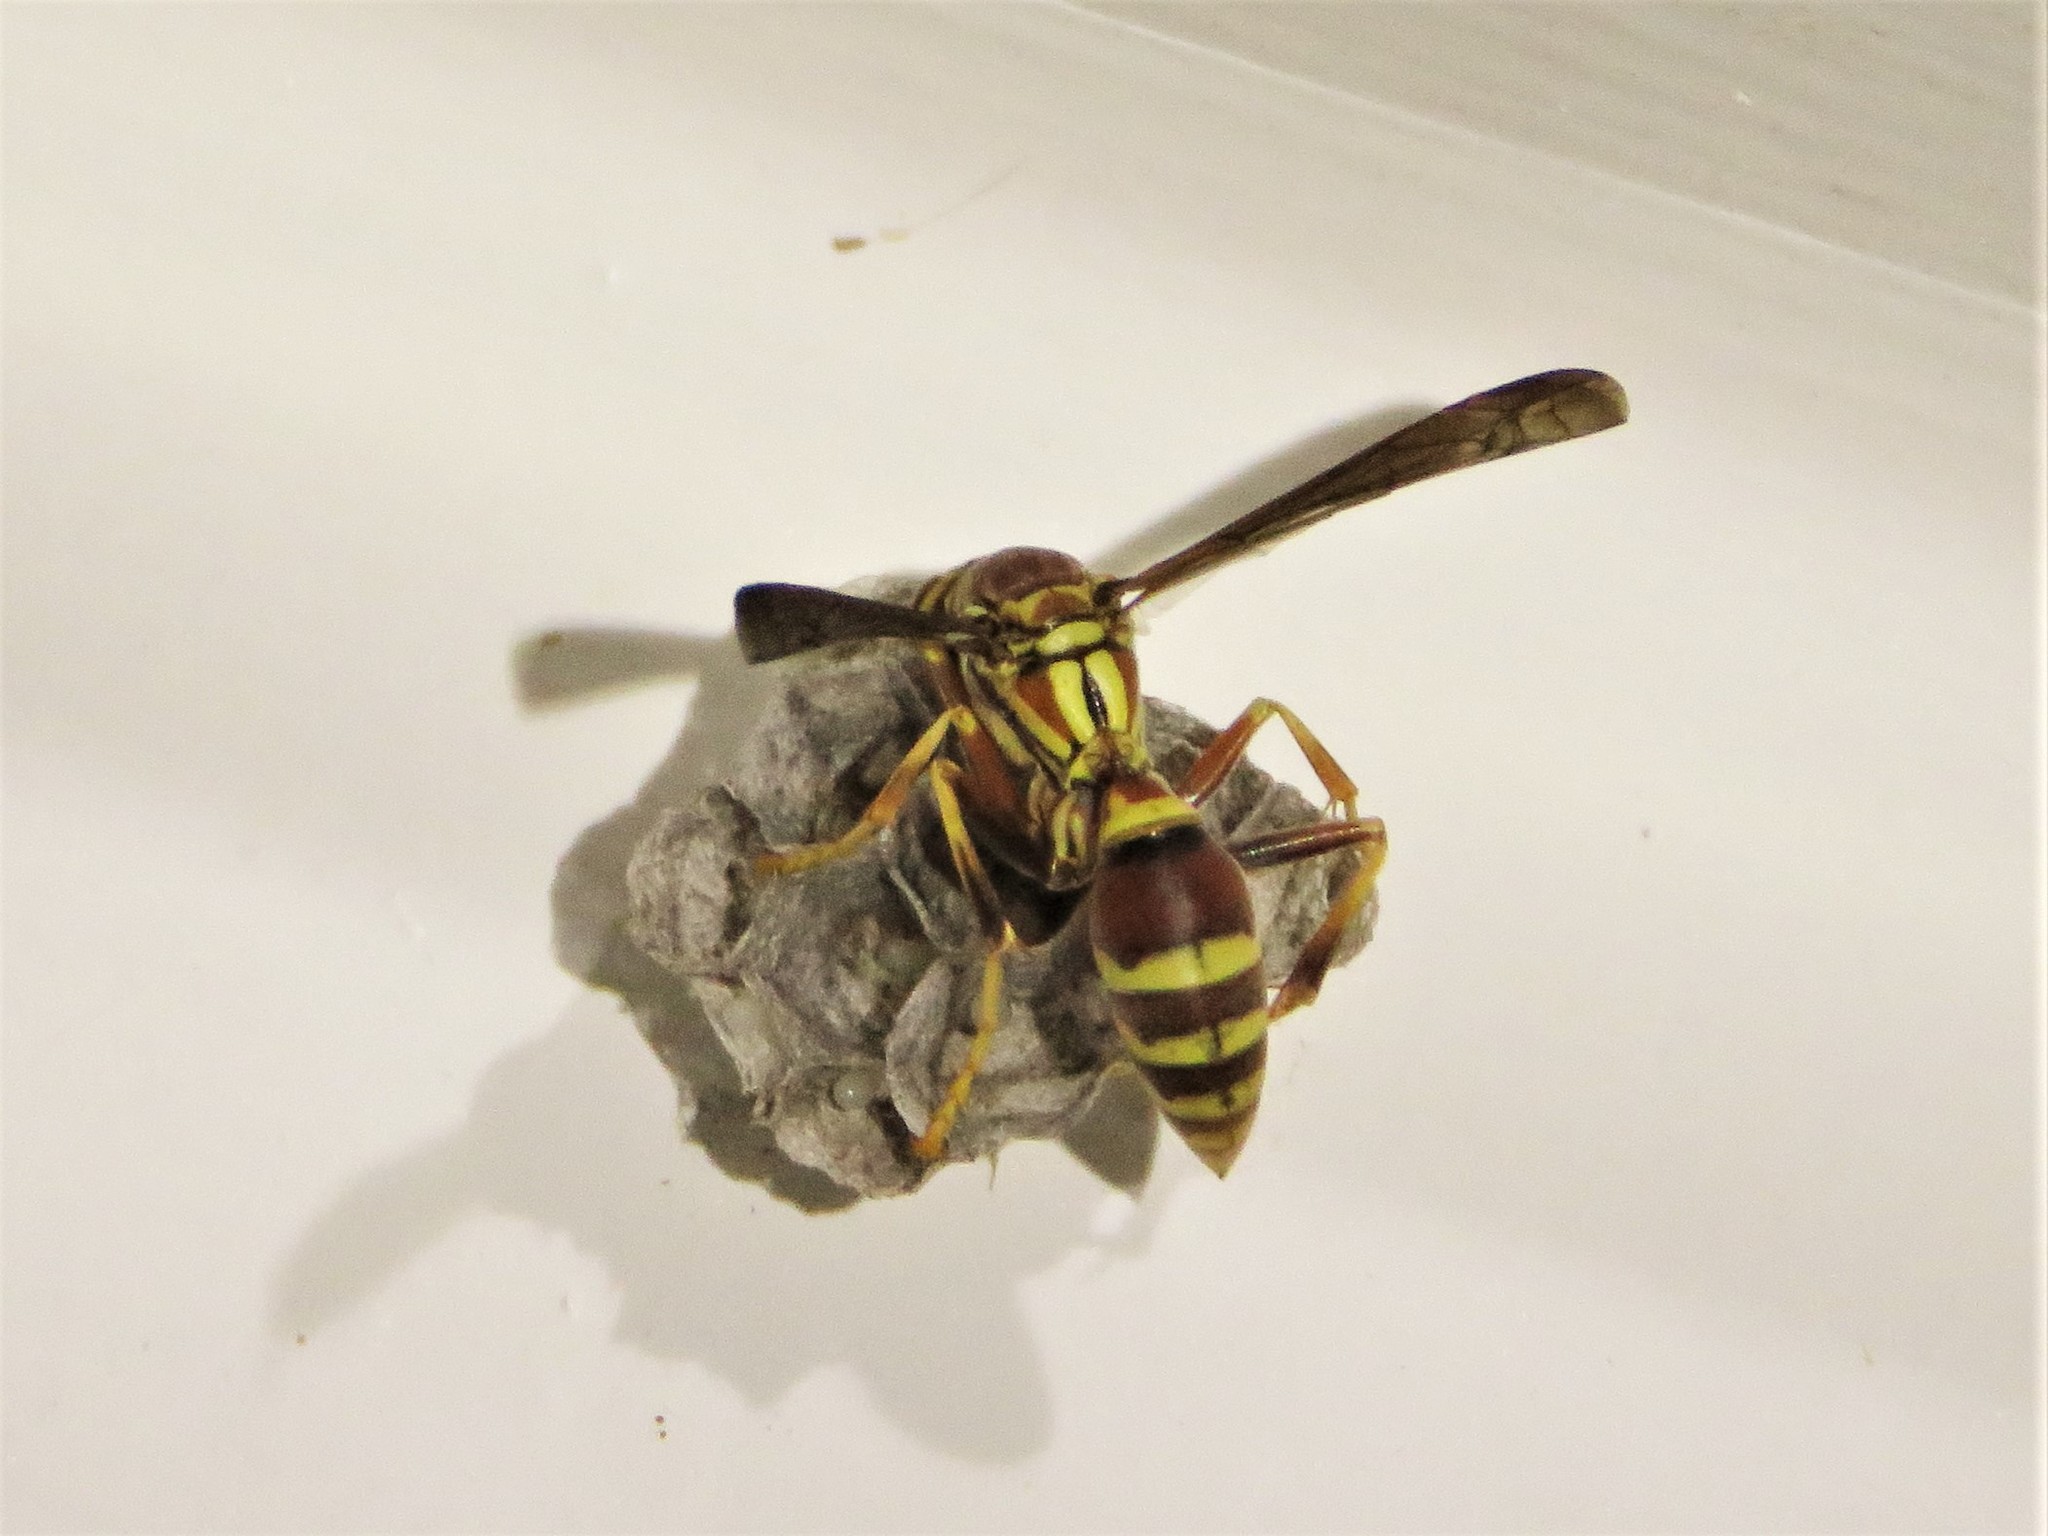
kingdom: Animalia
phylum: Arthropoda
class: Insecta
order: Hymenoptera
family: Eumenidae
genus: Polistes
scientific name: Polistes exclamans
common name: Paper wasp
